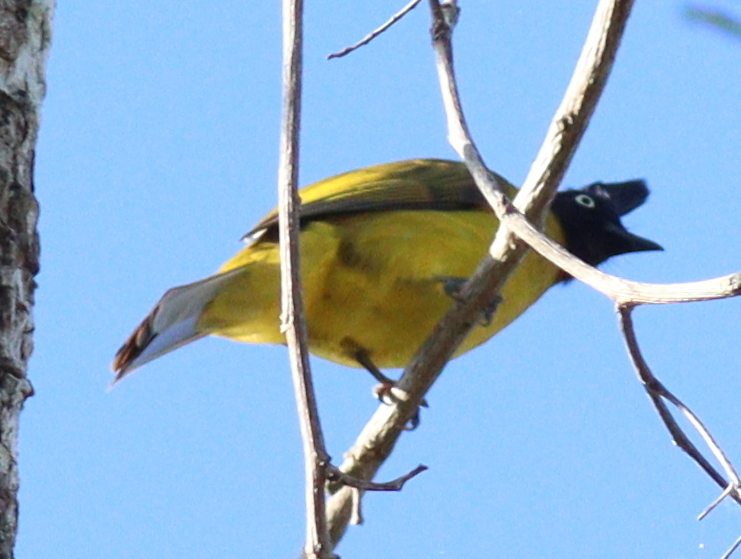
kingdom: Animalia
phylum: Chordata
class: Aves
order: Passeriformes
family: Pycnonotidae
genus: Pycnonotus
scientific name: Pycnonotus flaviventris
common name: Black-crested bulbul
